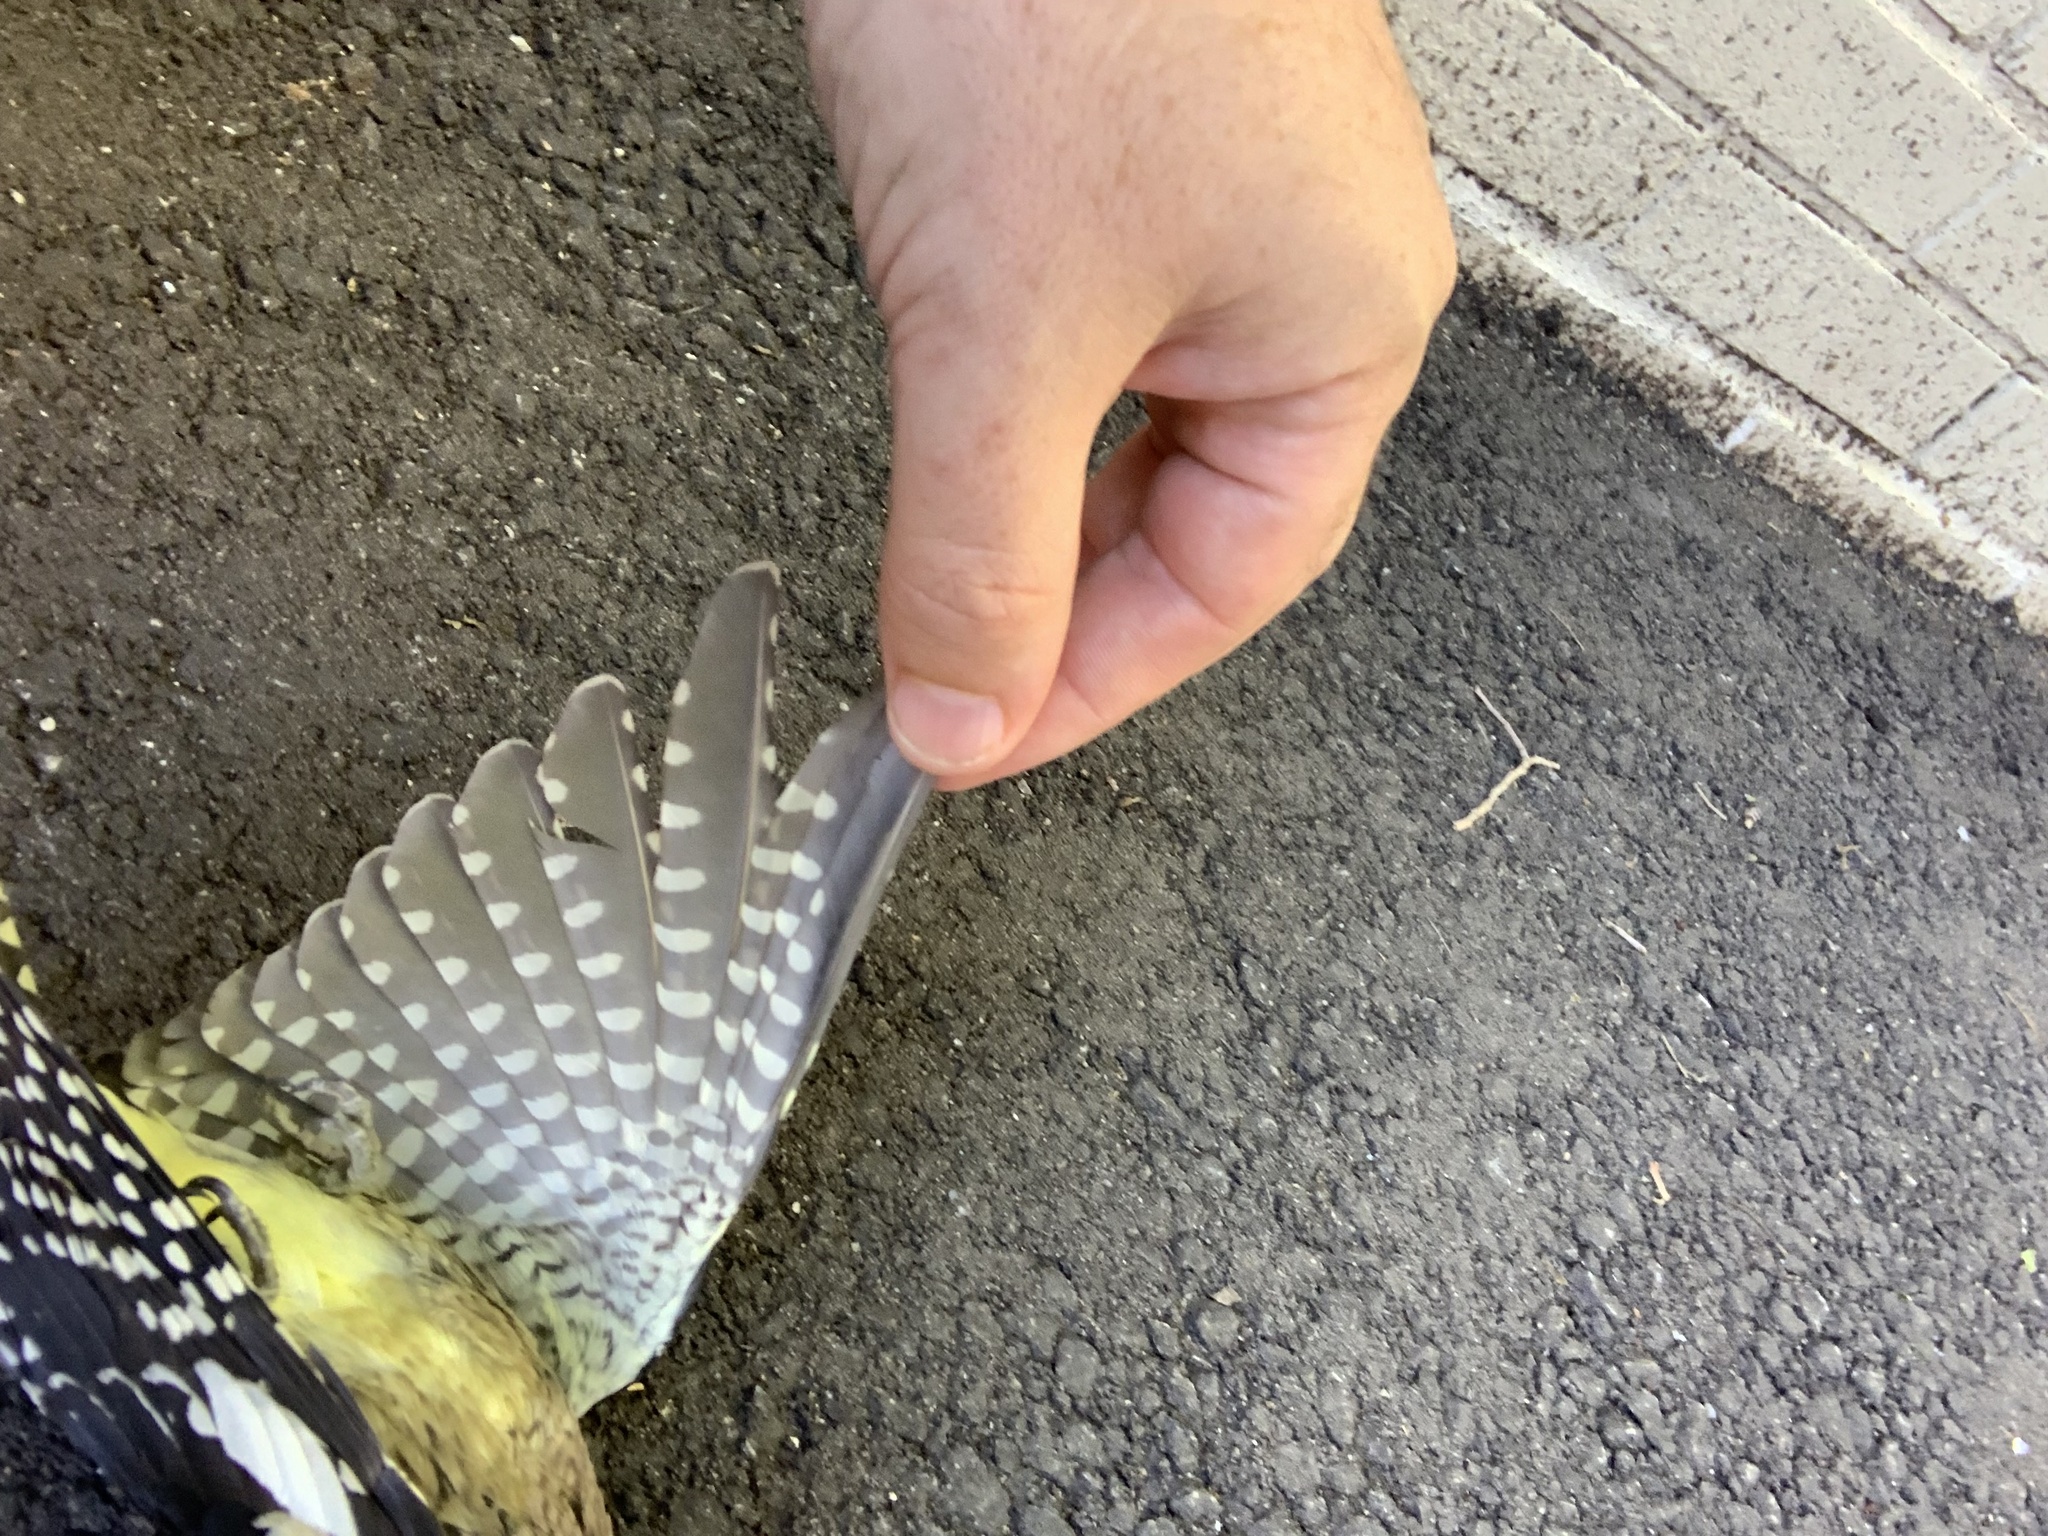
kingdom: Animalia
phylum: Chordata
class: Aves
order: Piciformes
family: Picidae
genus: Sphyrapicus
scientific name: Sphyrapicus varius
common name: Yellow-bellied sapsucker
